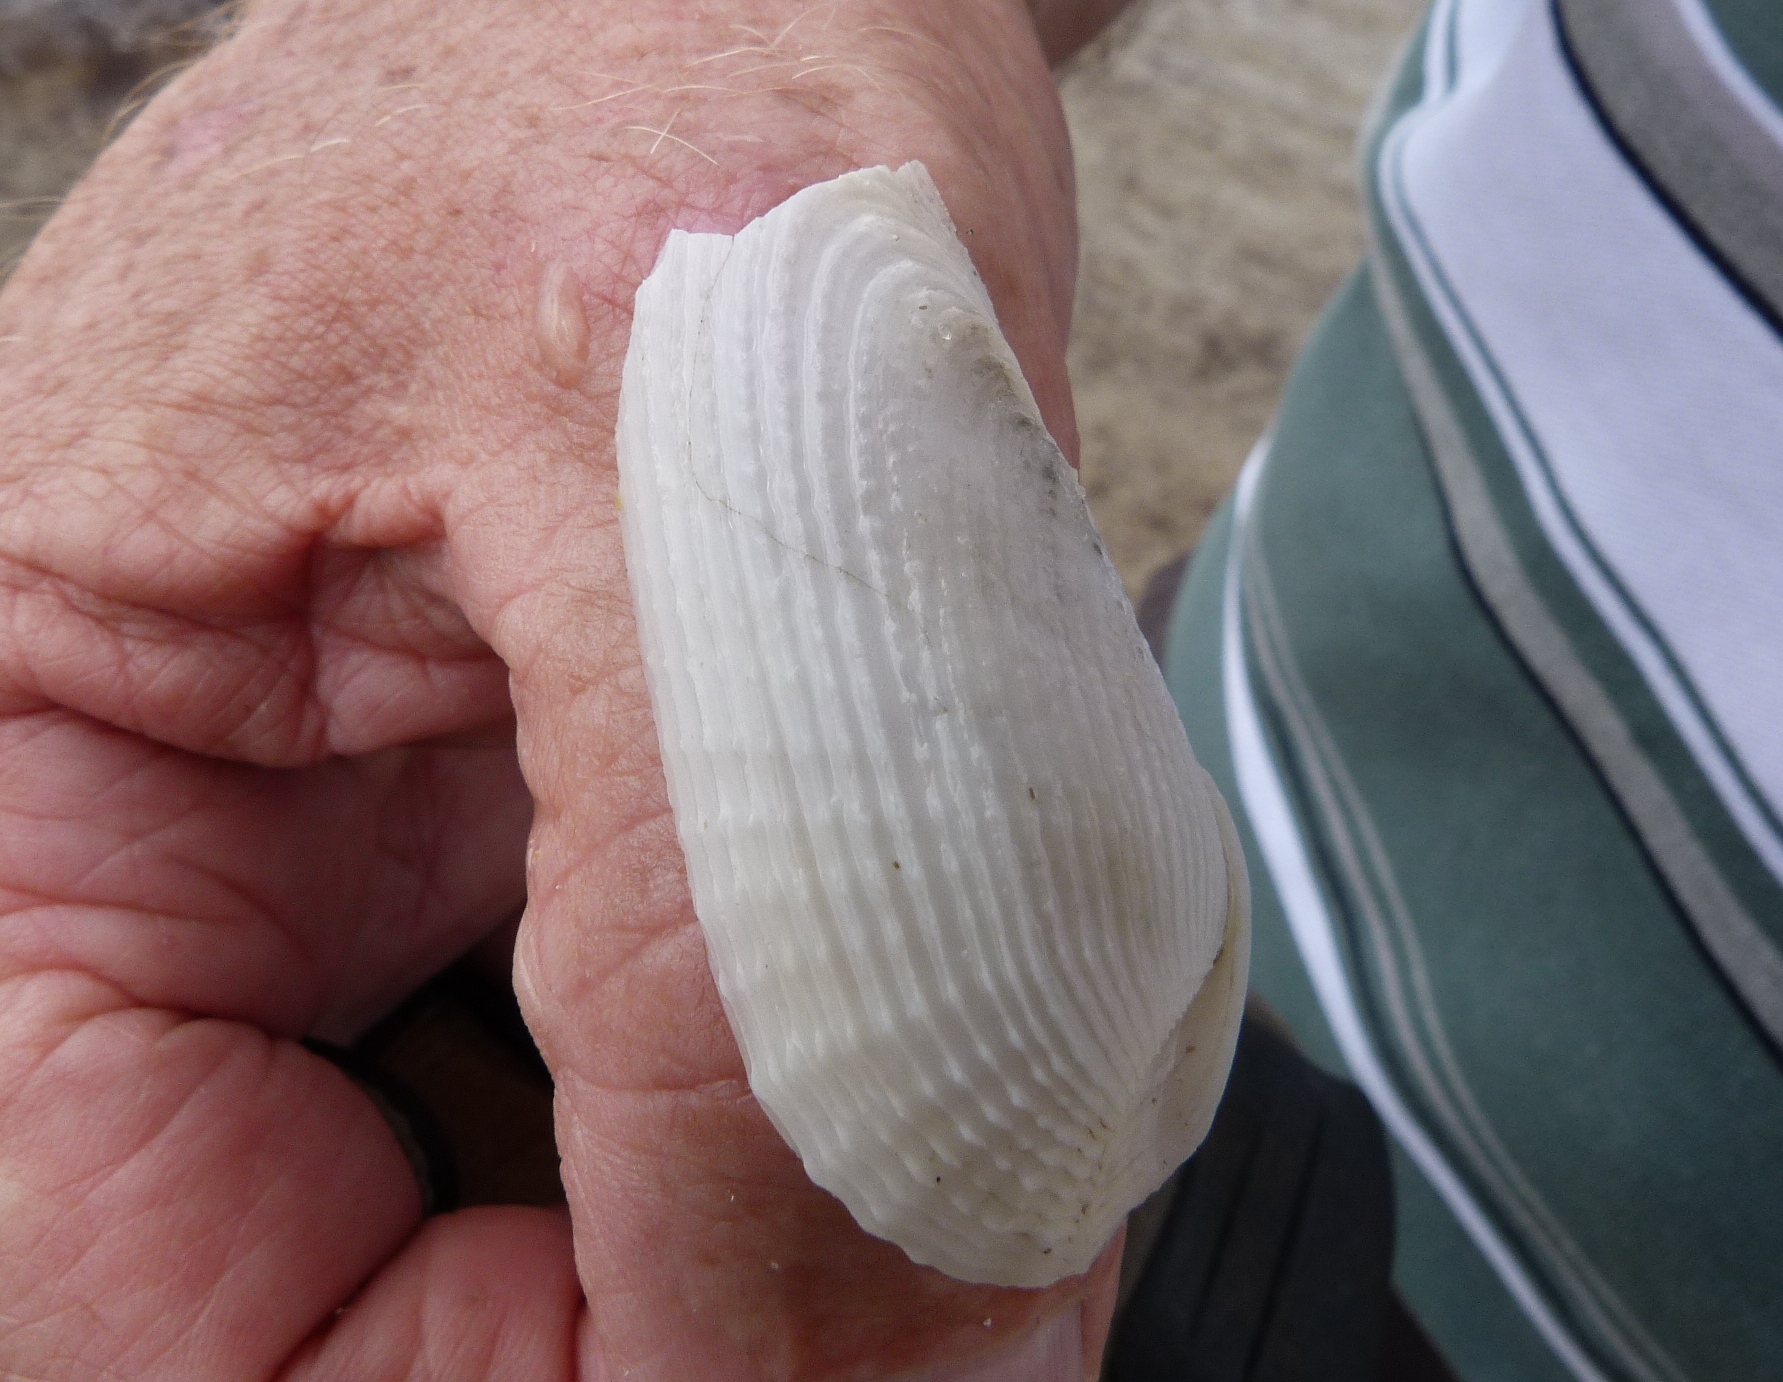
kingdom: Animalia
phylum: Mollusca
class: Bivalvia
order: Myida
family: Pholadidae
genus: Barnea
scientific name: Barnea australasiae
